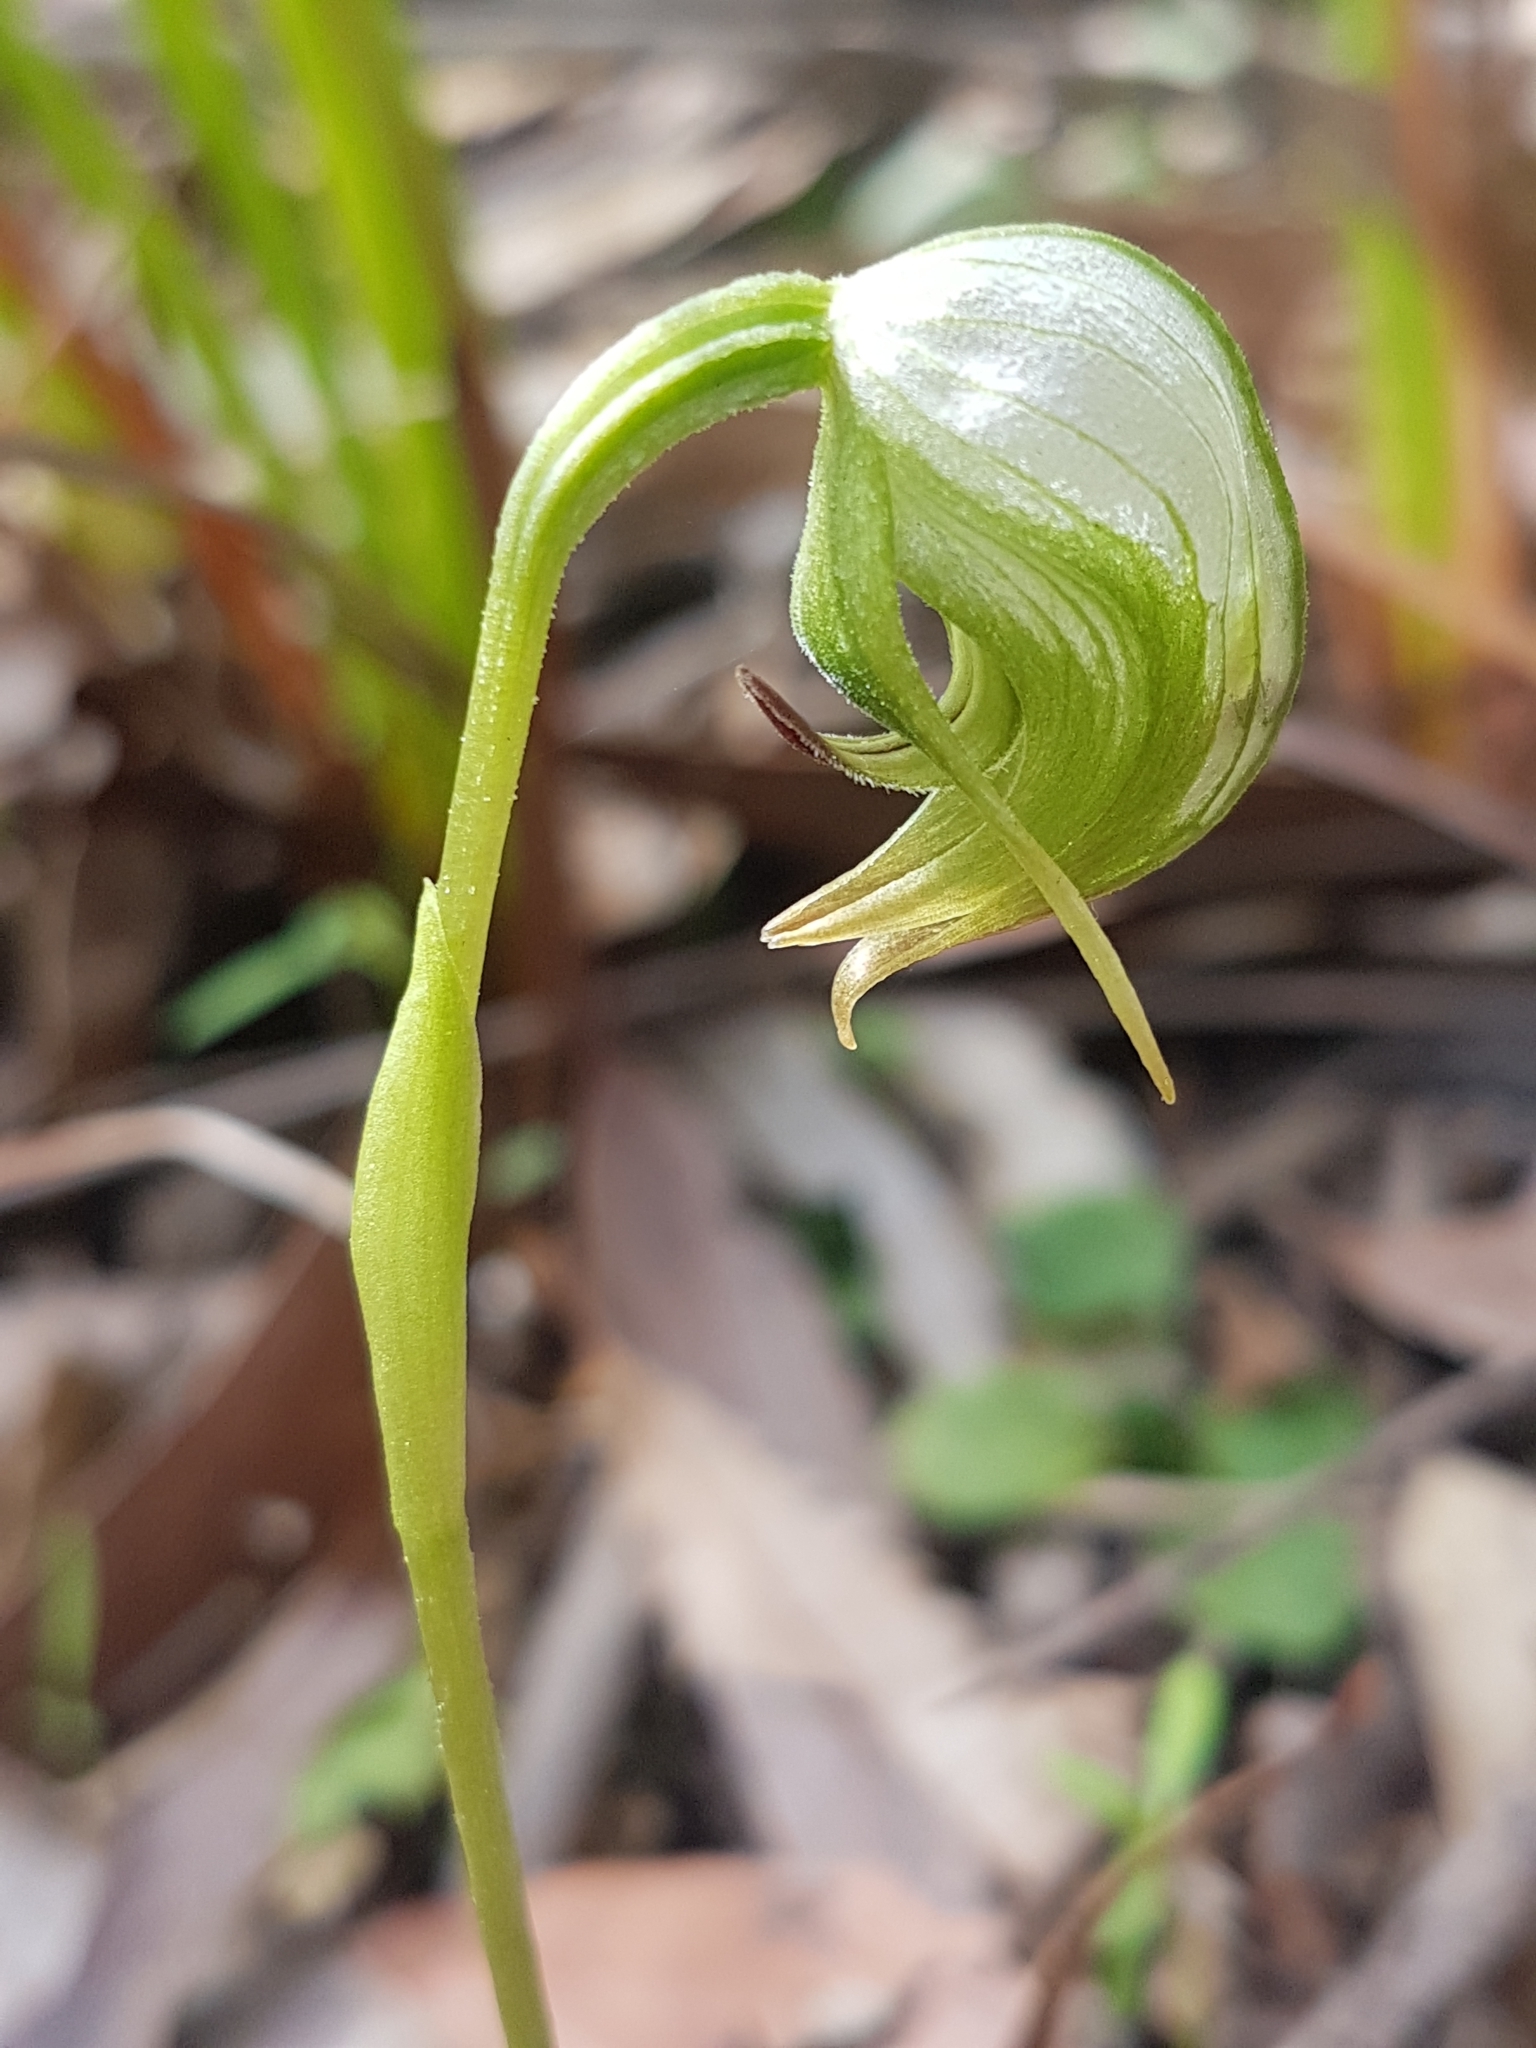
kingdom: Plantae
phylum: Tracheophyta
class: Liliopsida
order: Asparagales
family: Orchidaceae
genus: Pterostylis
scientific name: Pterostylis nutans
